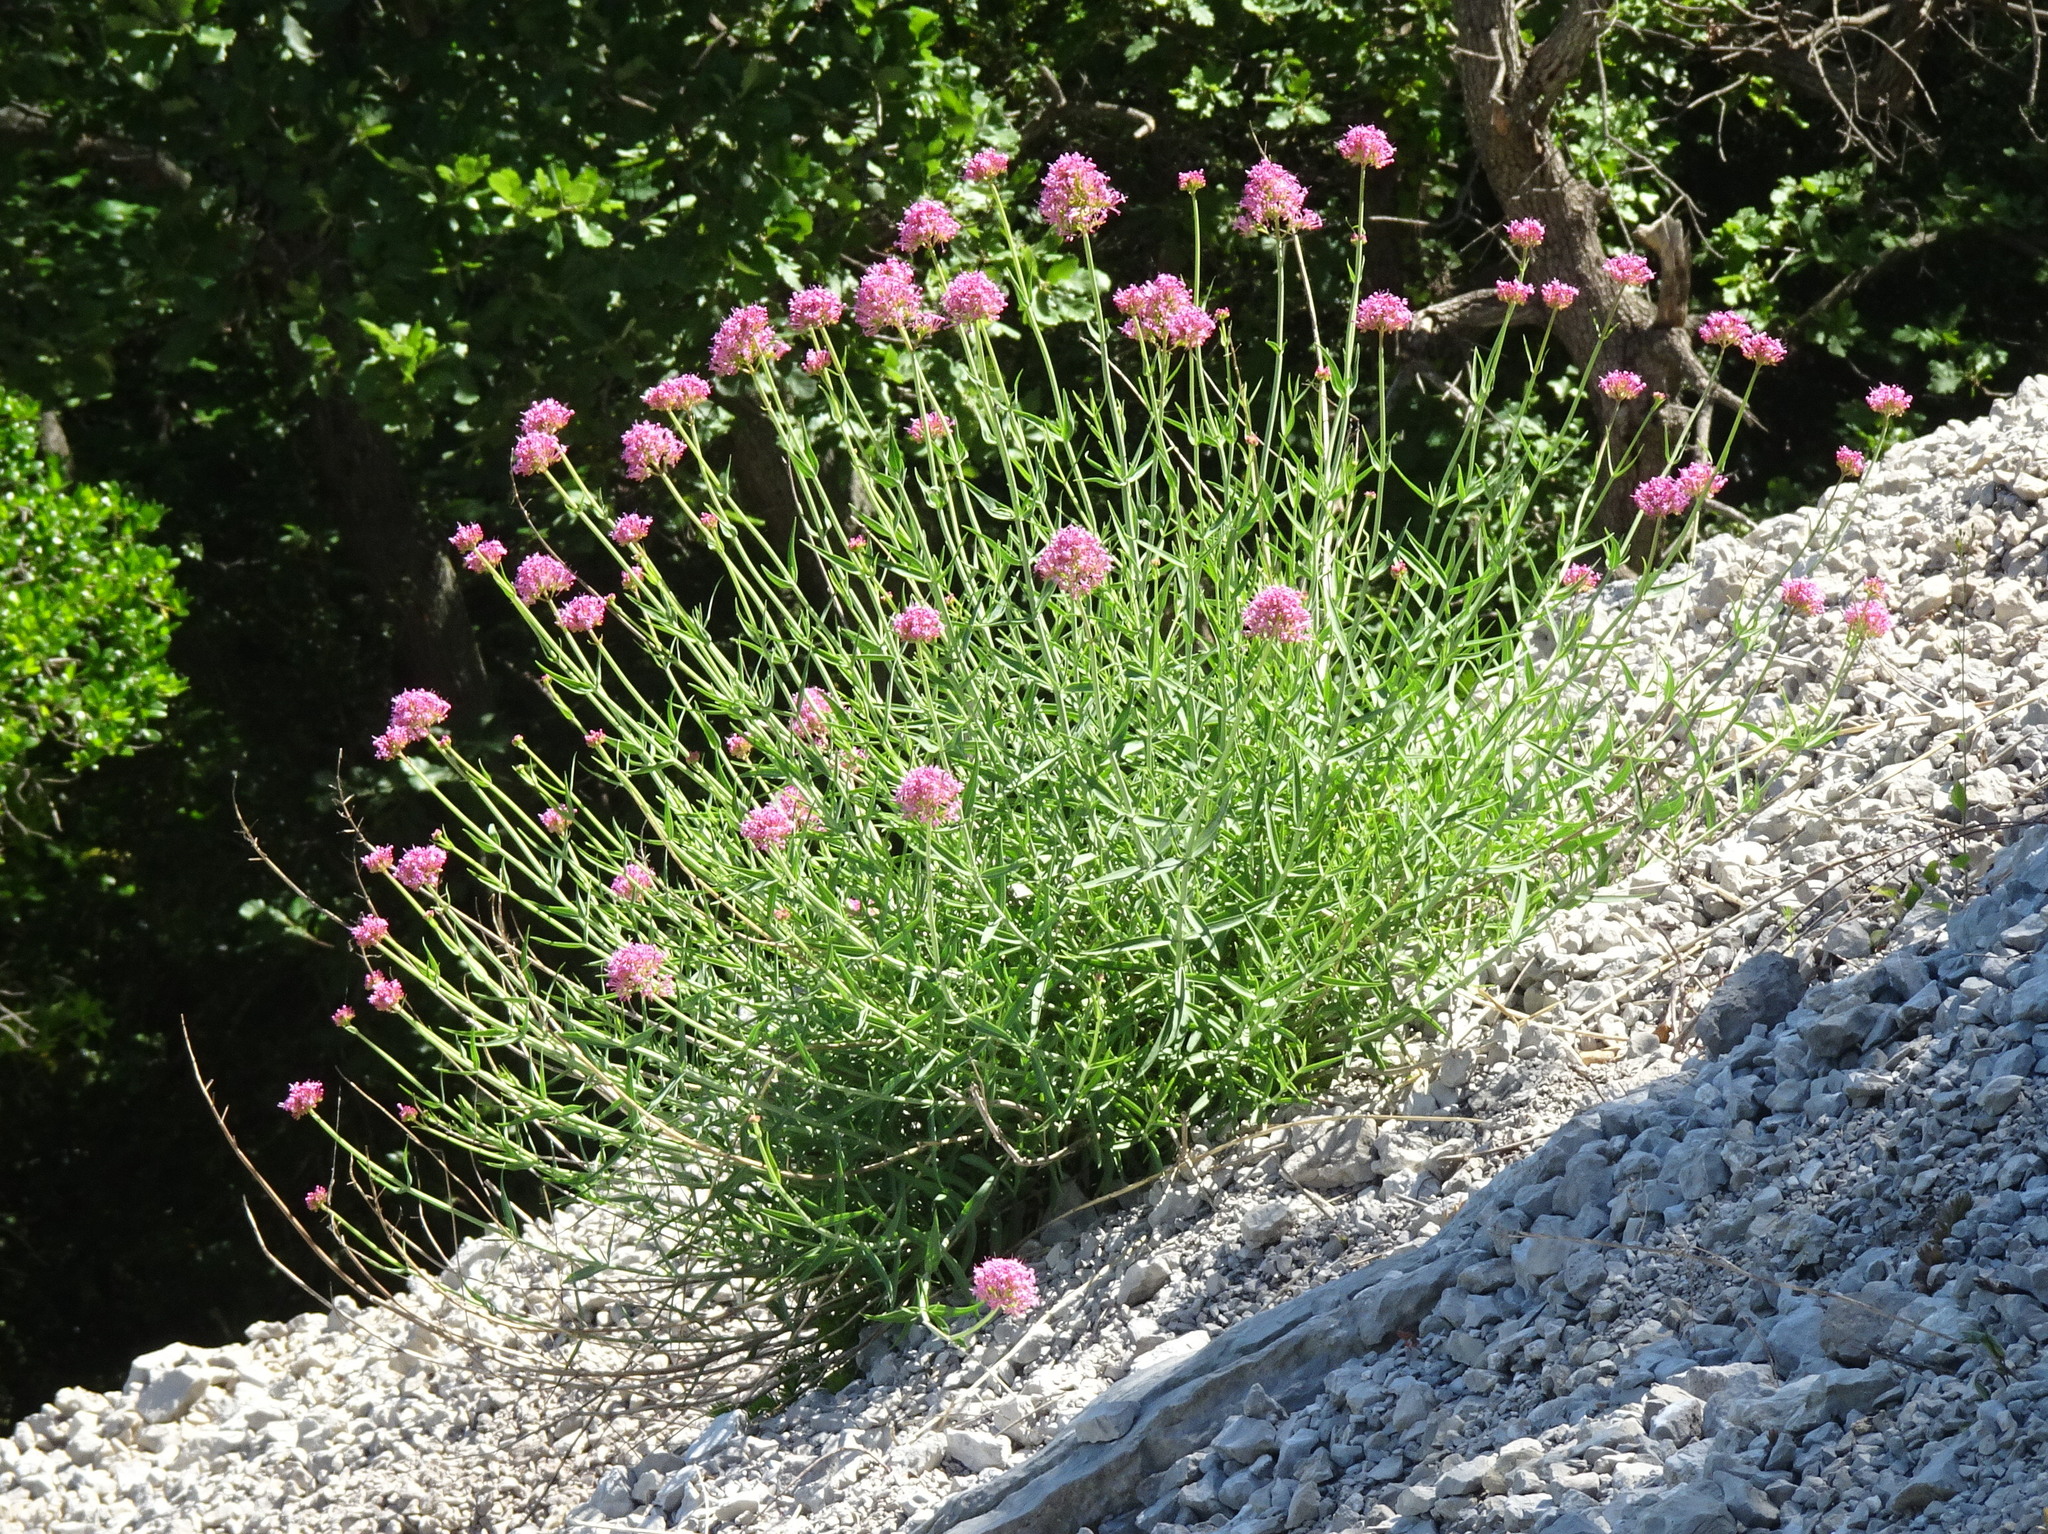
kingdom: Plantae
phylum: Tracheophyta
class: Magnoliopsida
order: Dipsacales
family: Caprifoliaceae
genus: Centranthus
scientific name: Centranthus lecoqii
